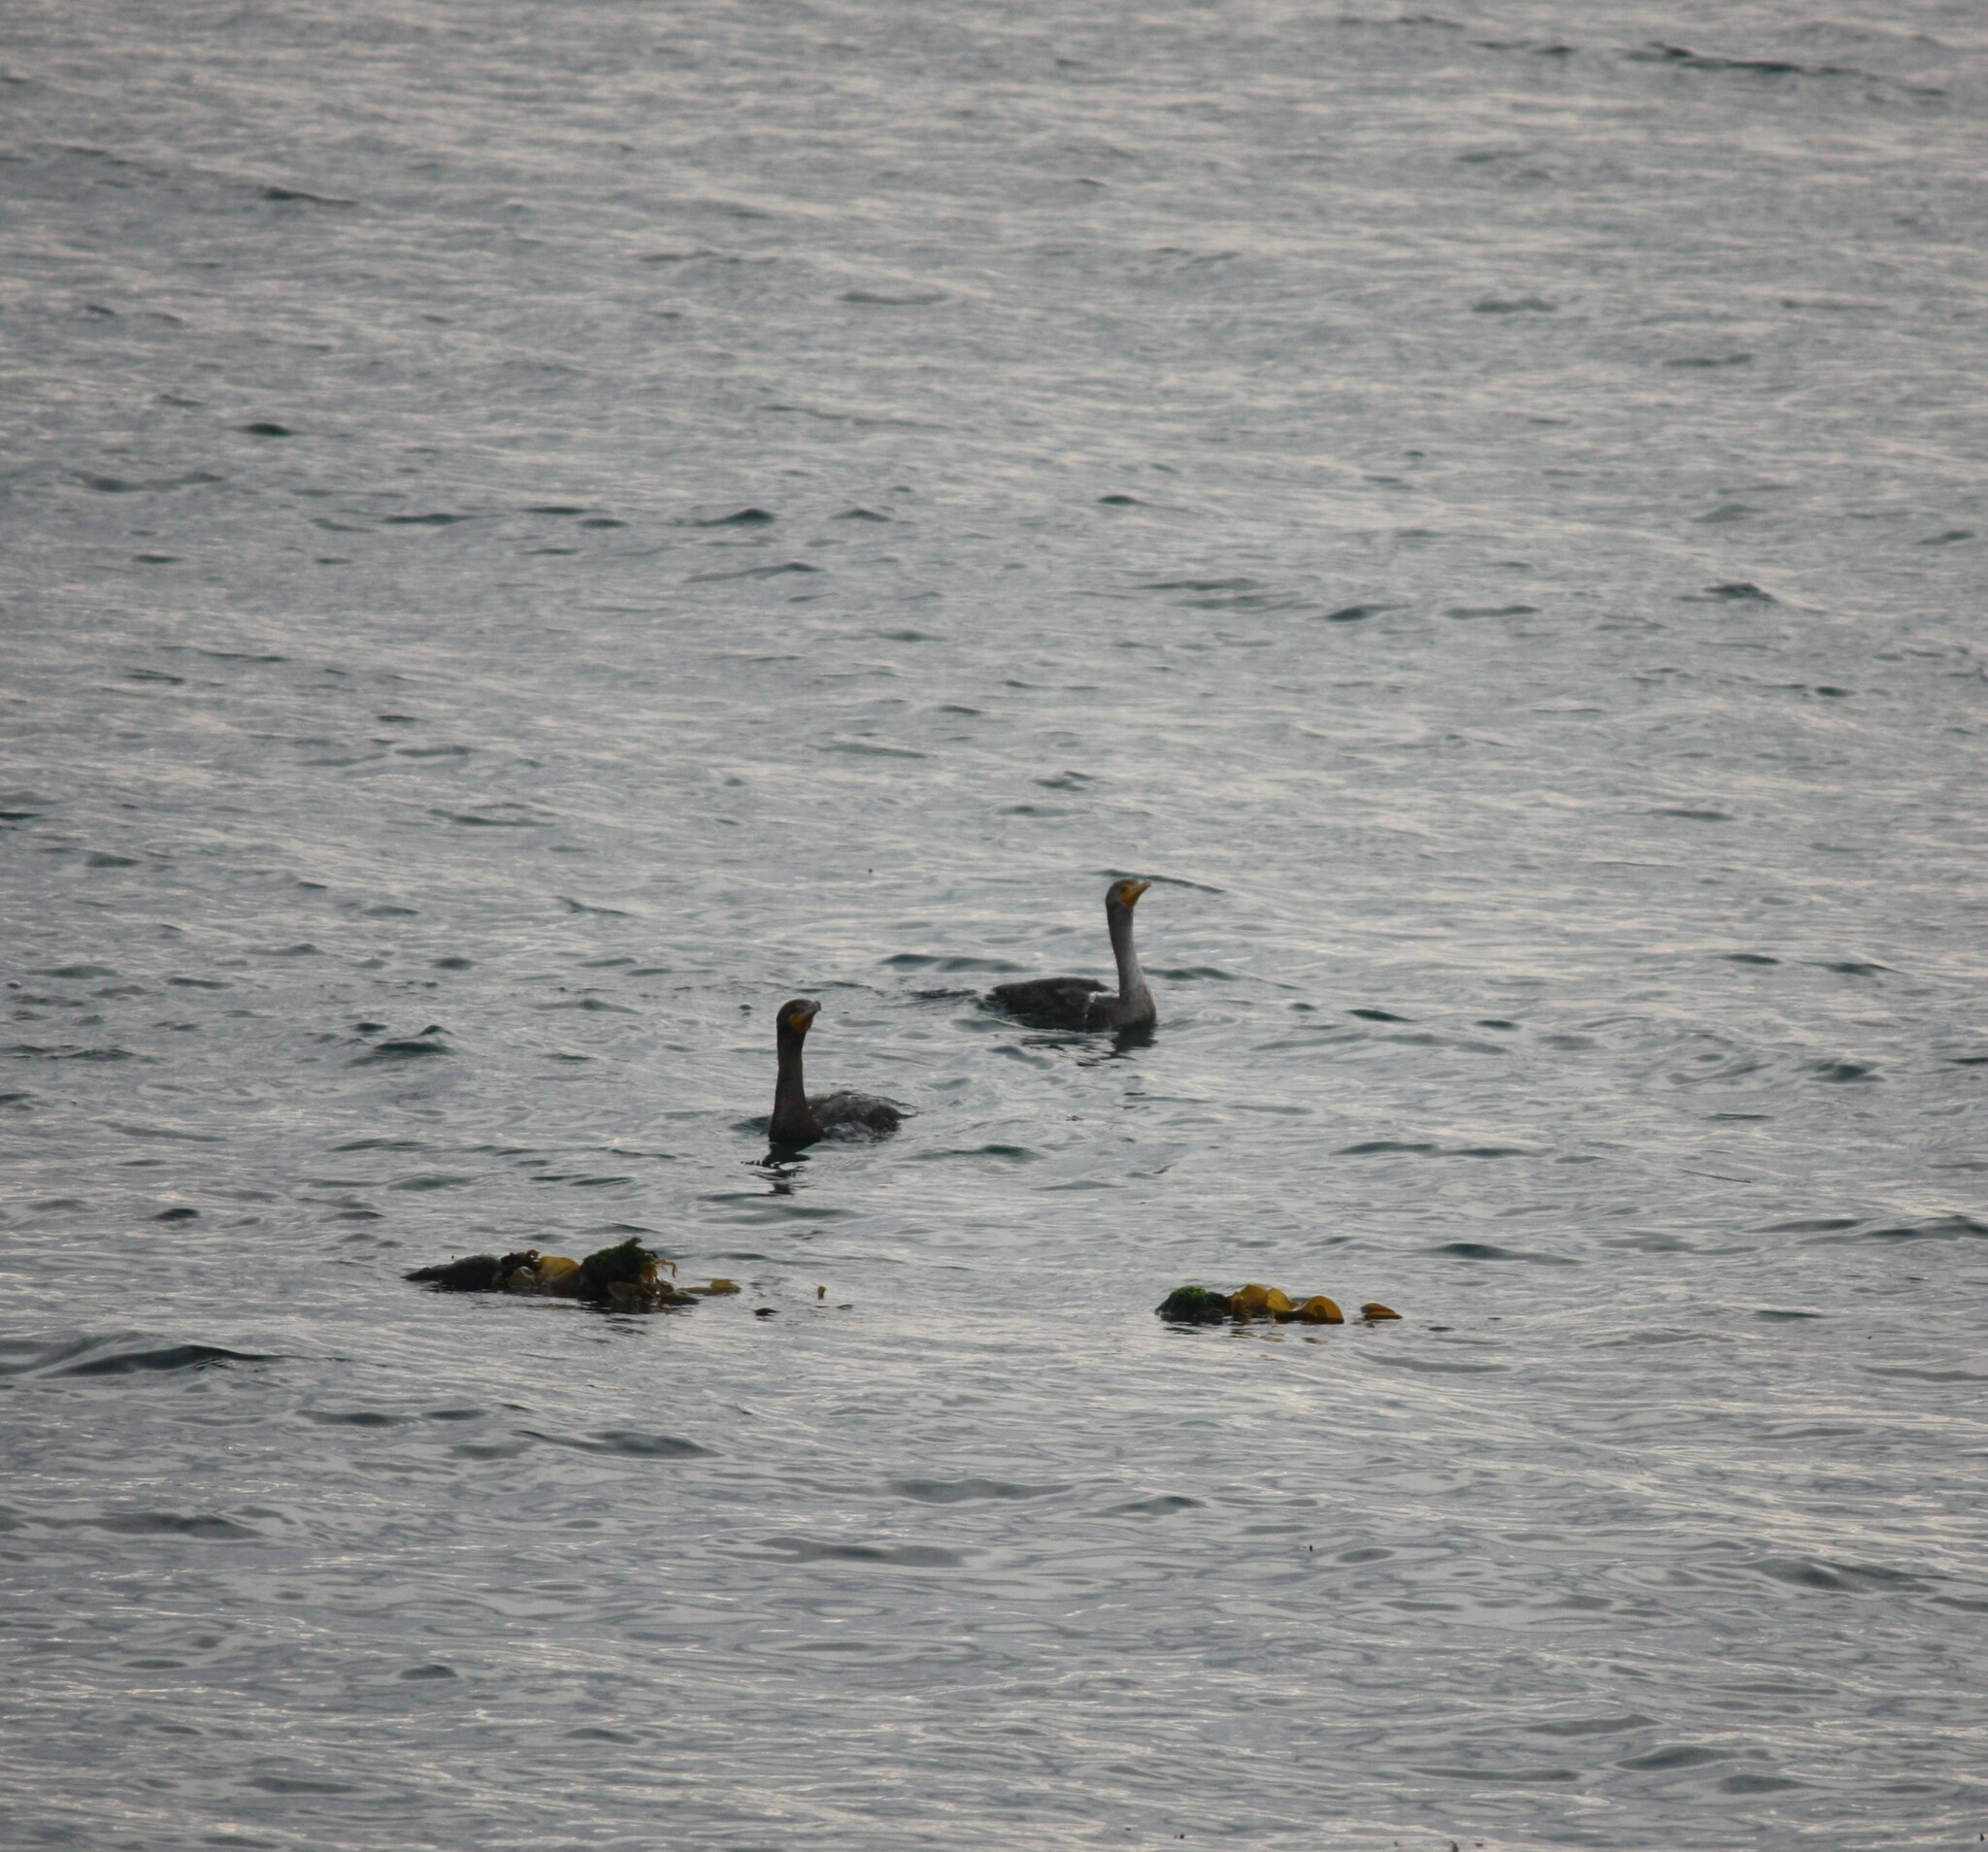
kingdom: Animalia
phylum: Chordata
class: Aves
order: Suliformes
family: Phalacrocoracidae
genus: Phalacrocorax
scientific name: Phalacrocorax auritus
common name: Double-crested cormorant
